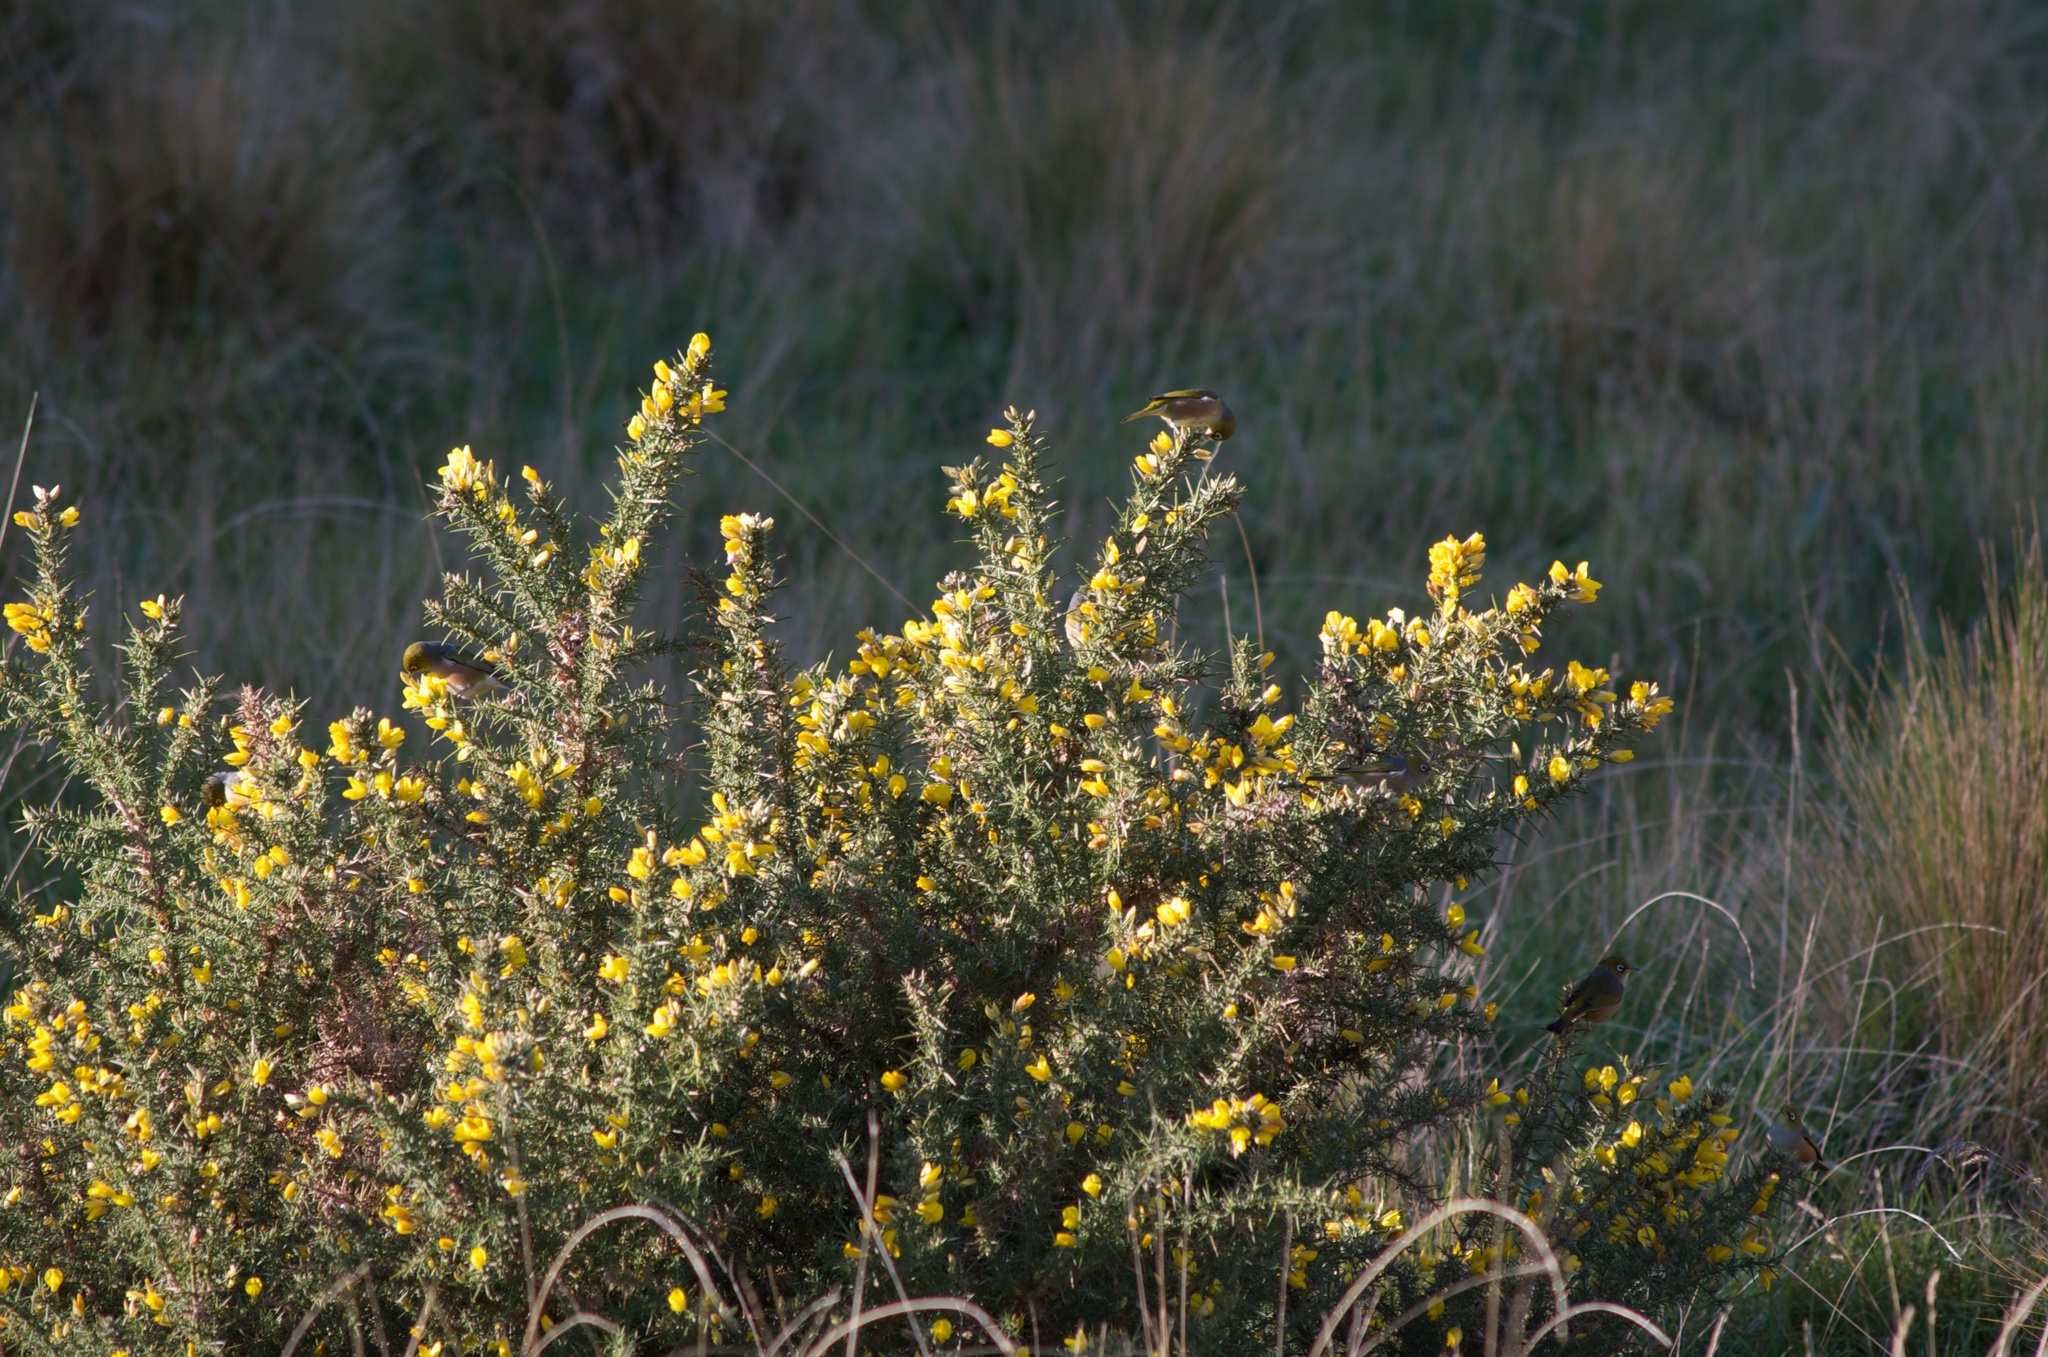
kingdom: Animalia
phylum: Chordata
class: Aves
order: Passeriformes
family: Zosteropidae
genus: Zosterops
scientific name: Zosterops lateralis
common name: Silvereye
